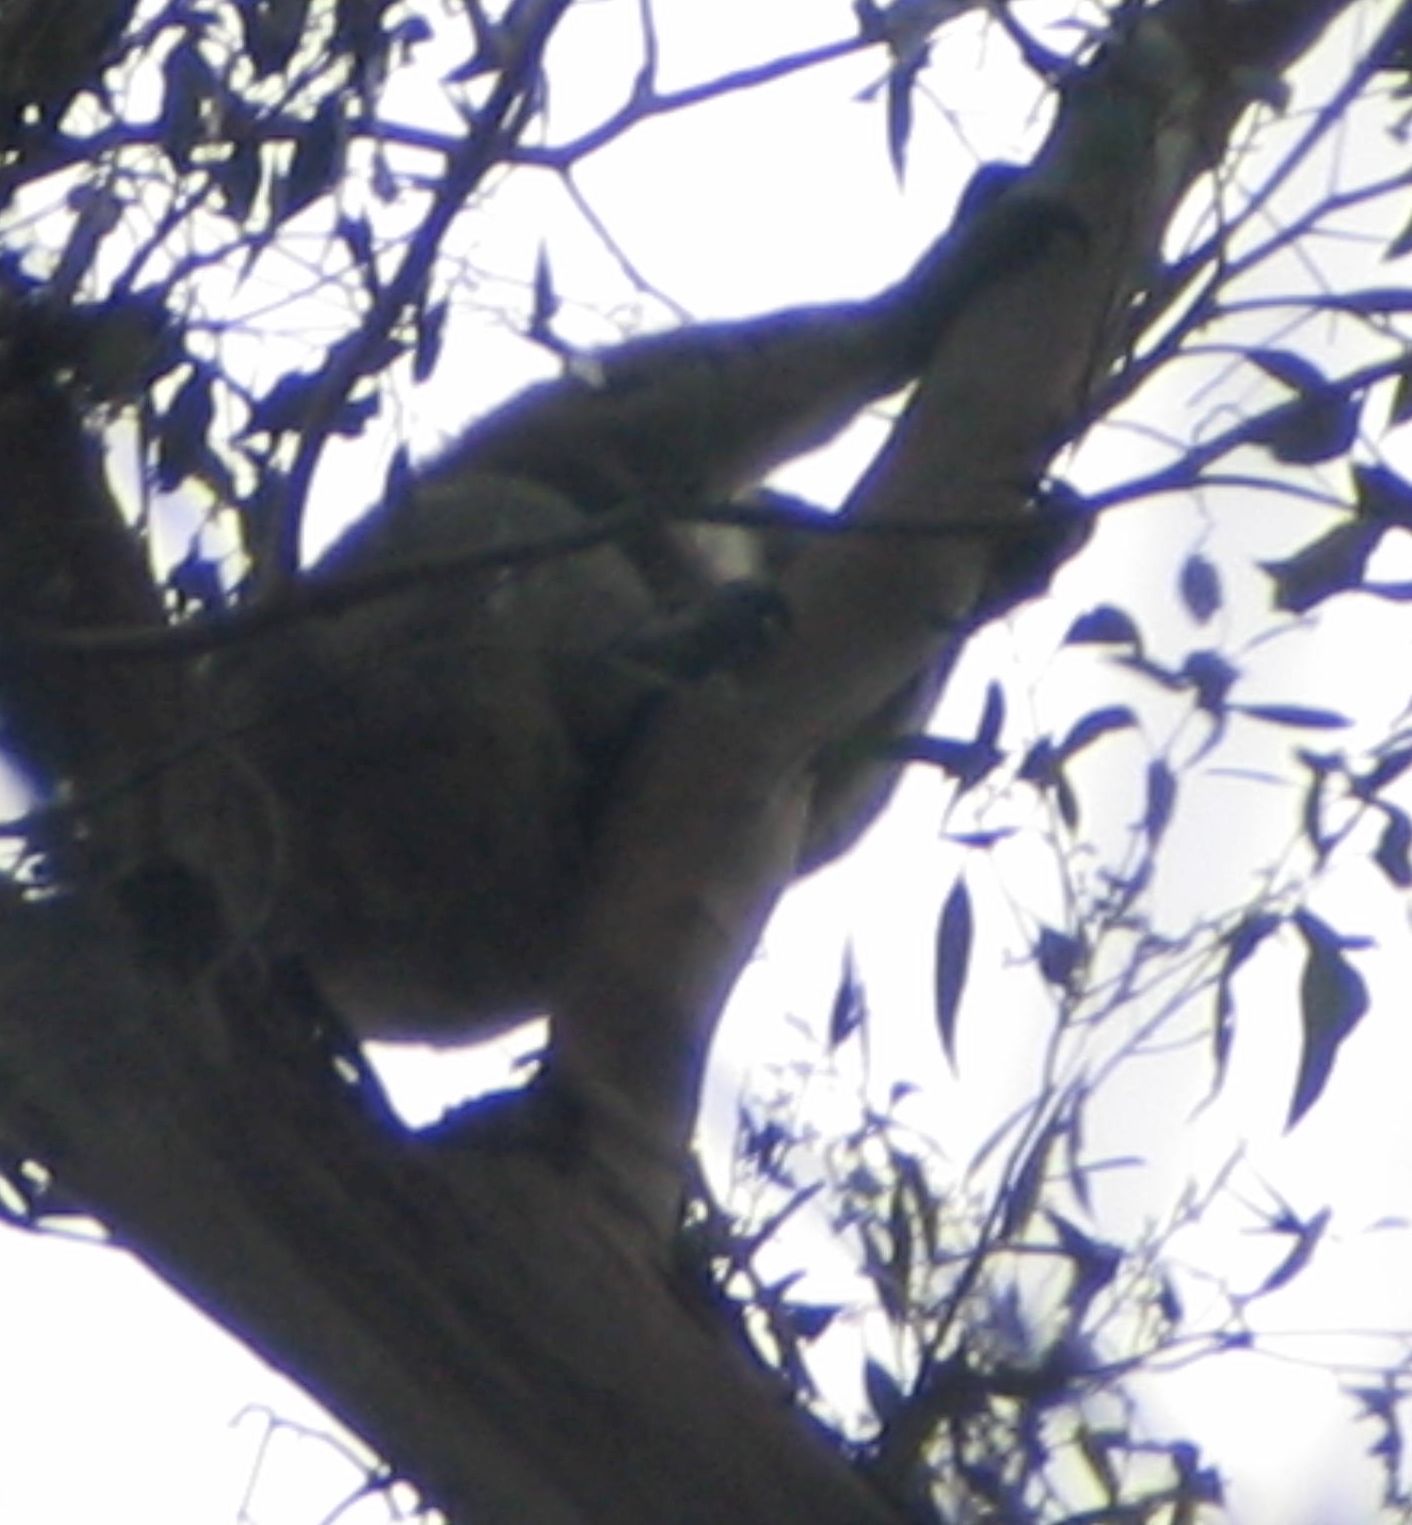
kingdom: Animalia
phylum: Chordata
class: Mammalia
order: Diprotodontia
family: Phascolarctidae
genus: Phascolarctos
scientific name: Phascolarctos cinereus
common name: Koala
